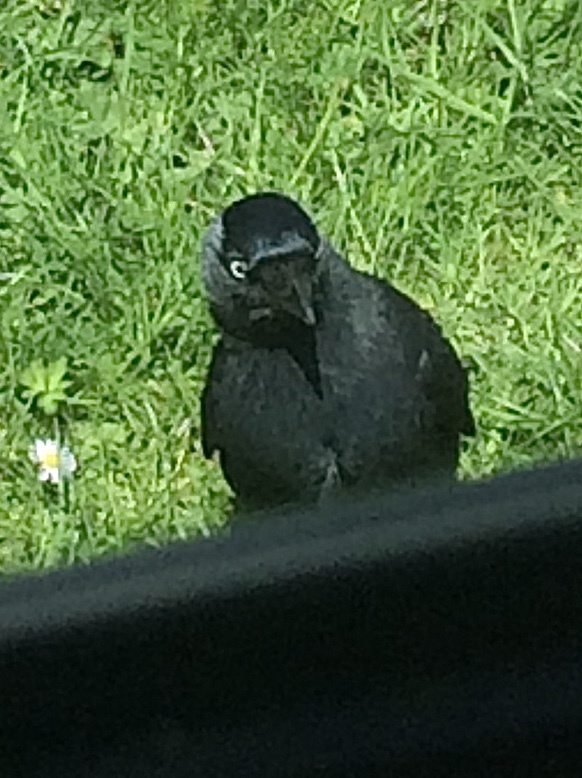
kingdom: Animalia
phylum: Chordata
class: Aves
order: Passeriformes
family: Corvidae
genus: Coloeus
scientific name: Coloeus monedula
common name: Western jackdaw
